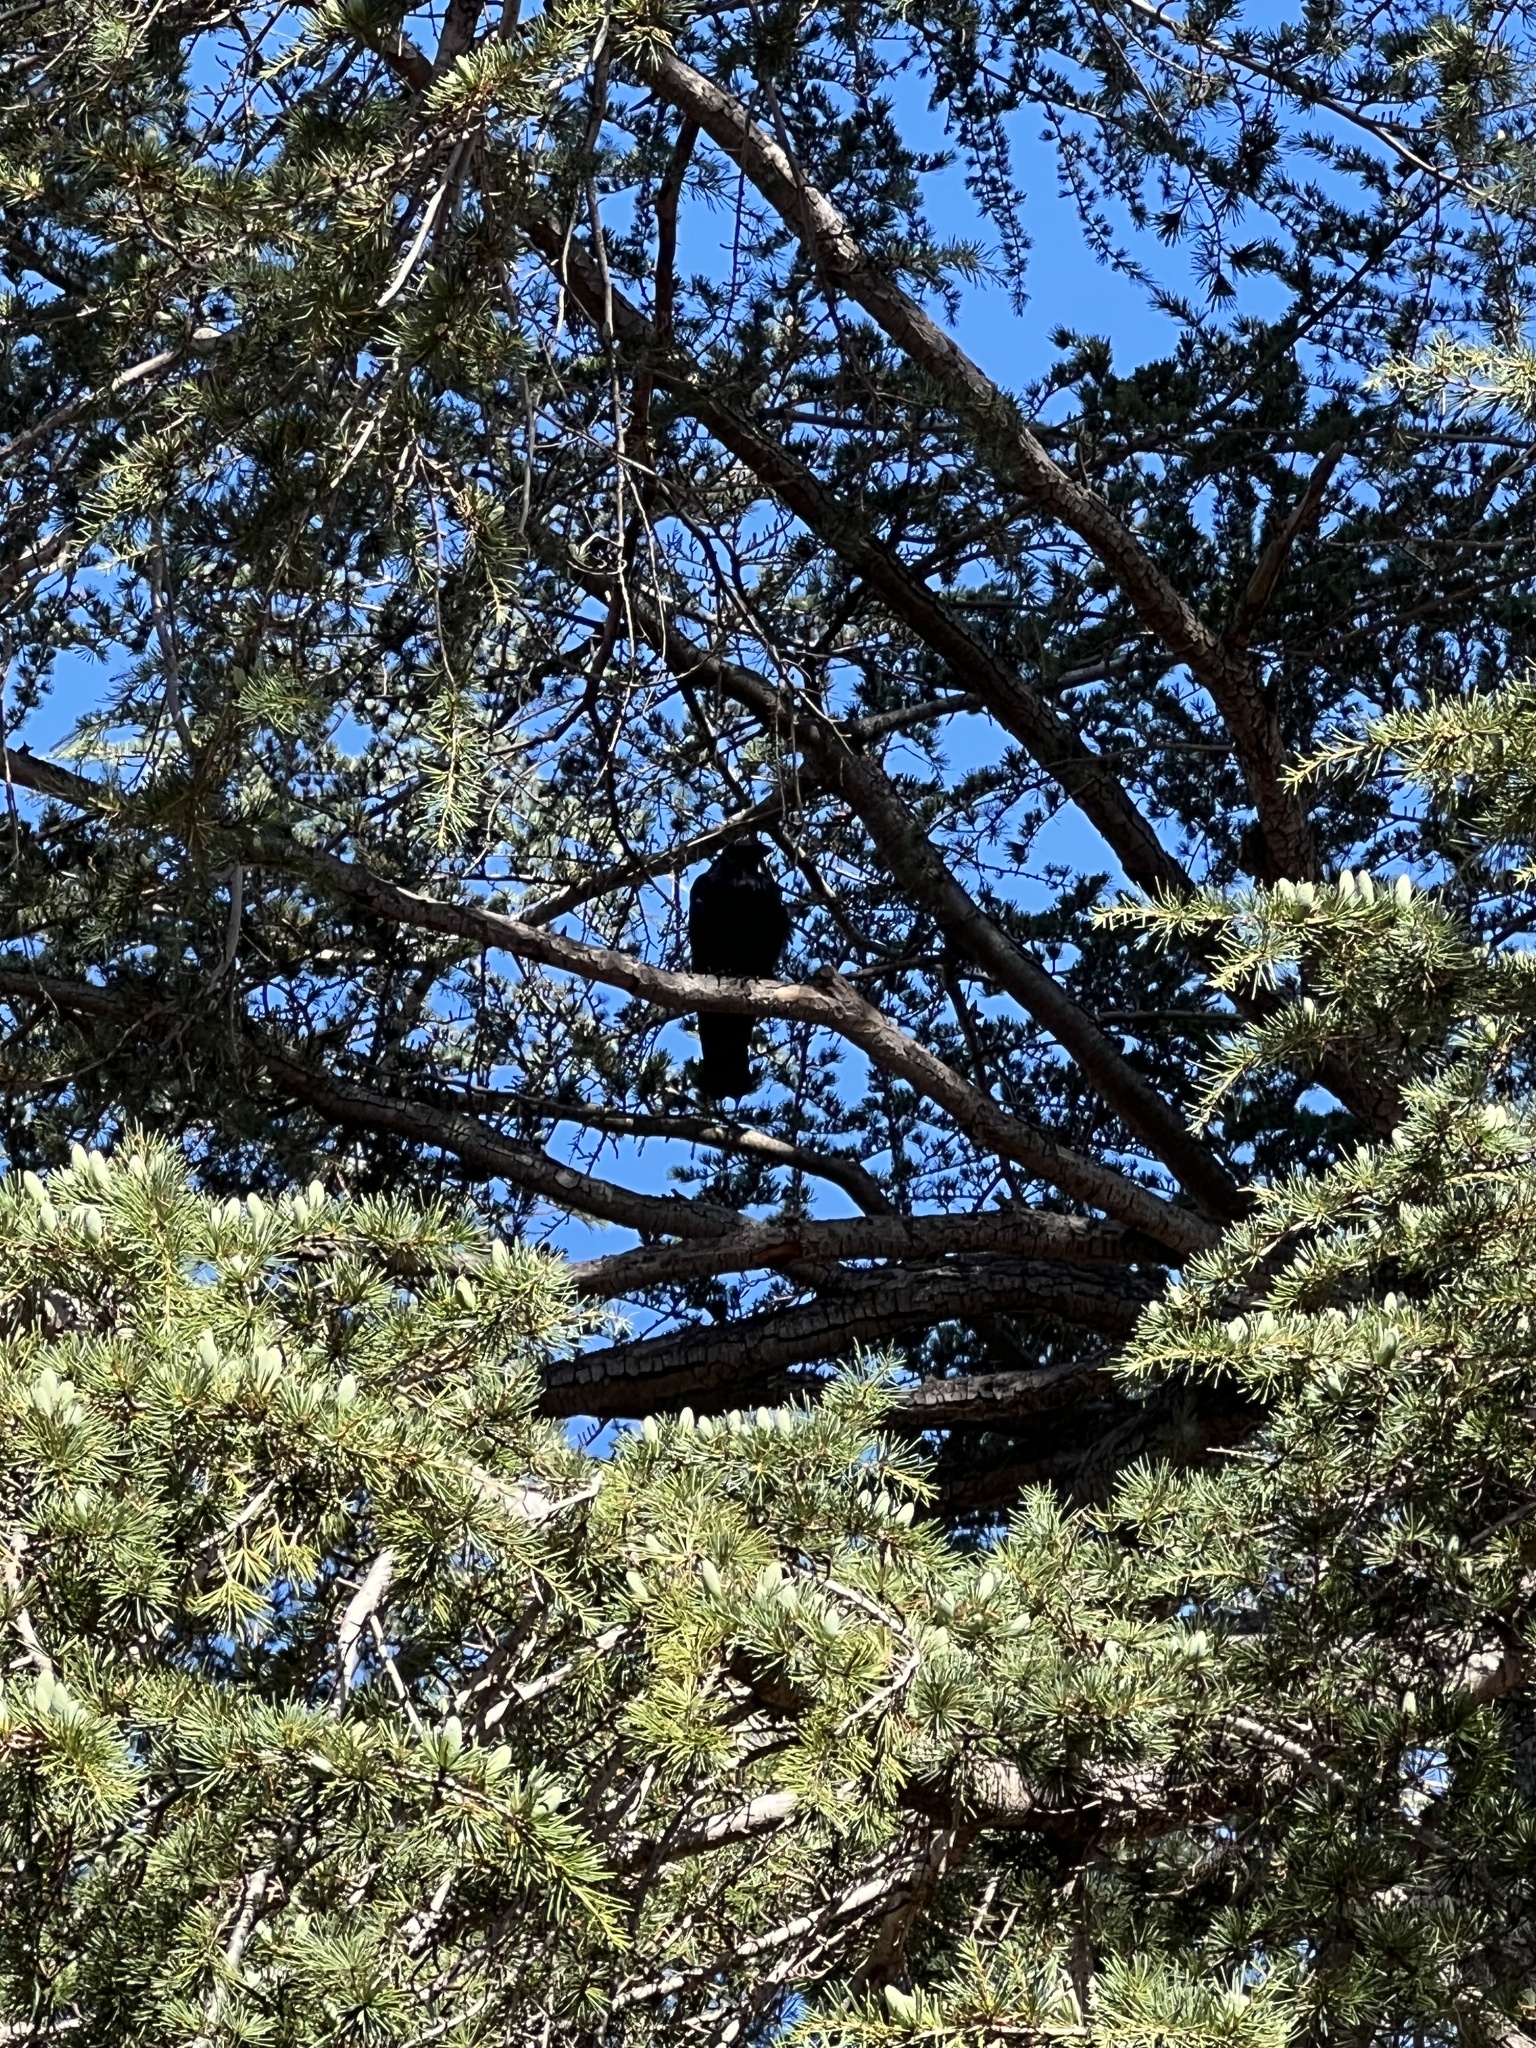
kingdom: Animalia
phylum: Chordata
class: Aves
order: Passeriformes
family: Corvidae
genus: Corvus
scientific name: Corvus corax
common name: Common raven
